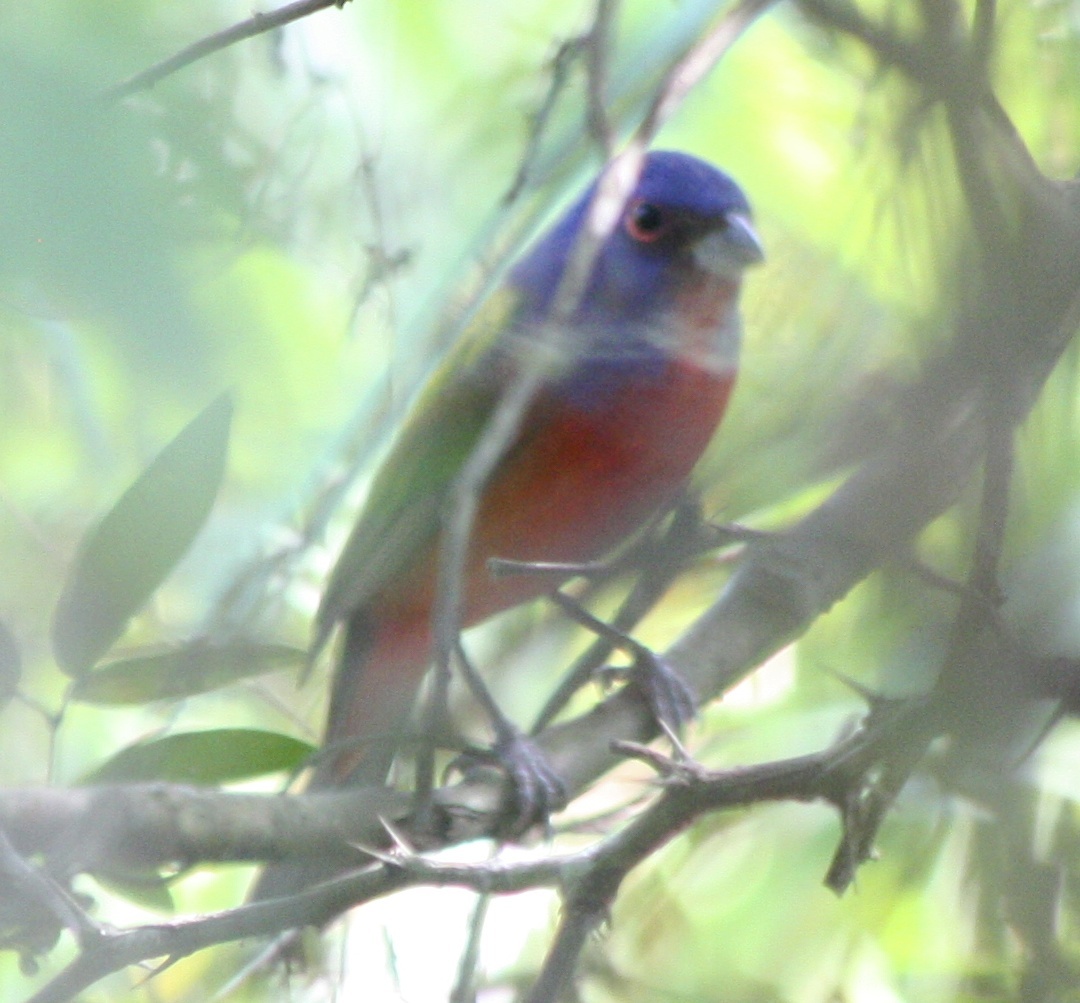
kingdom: Animalia
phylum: Chordata
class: Aves
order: Passeriformes
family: Cardinalidae
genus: Passerina
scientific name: Passerina ciris
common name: Painted bunting
